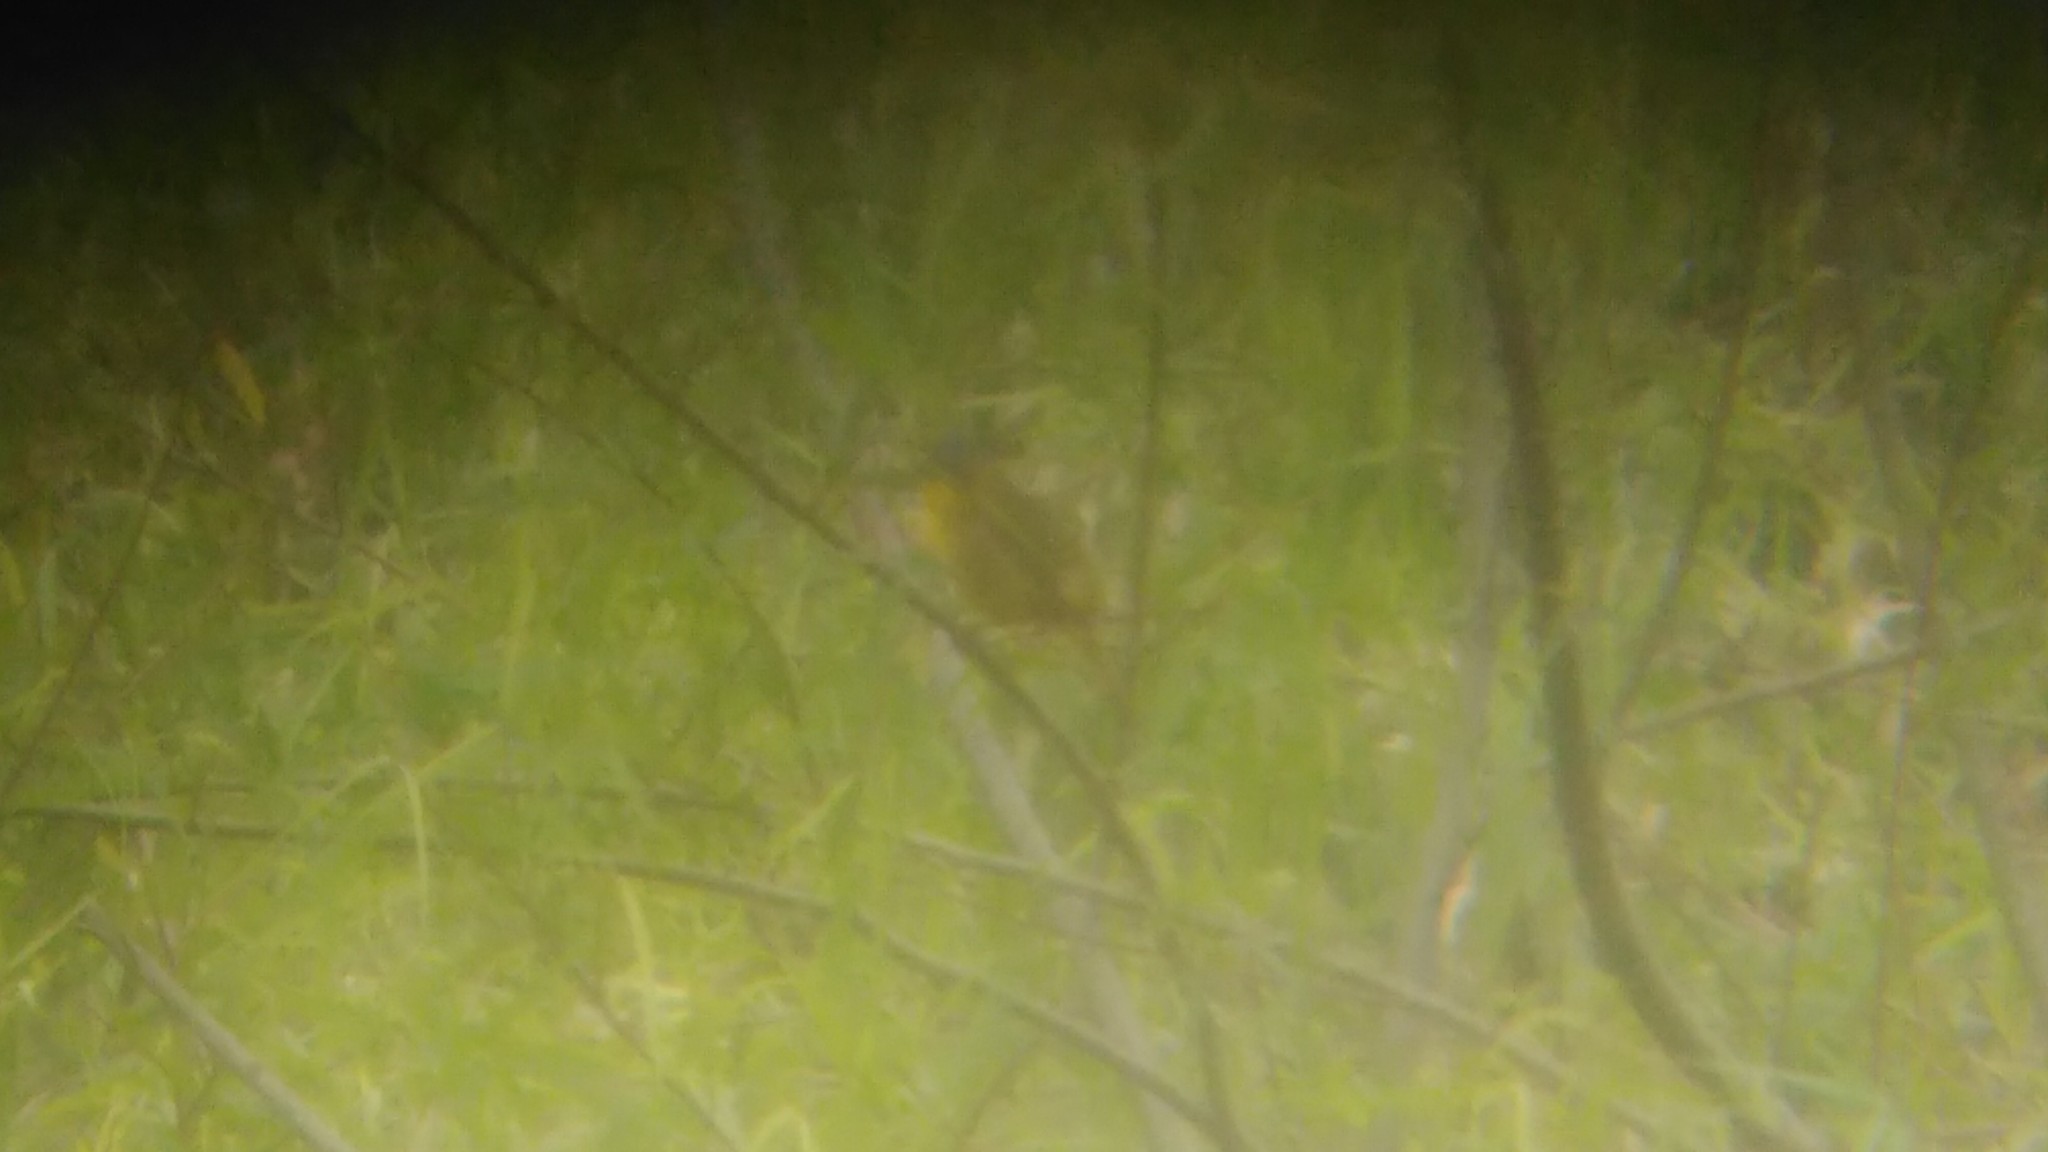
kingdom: Animalia
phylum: Chordata
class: Aves
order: Passeriformes
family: Parulidae
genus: Geothlypis
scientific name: Geothlypis velata
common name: Southern yellowthroat
